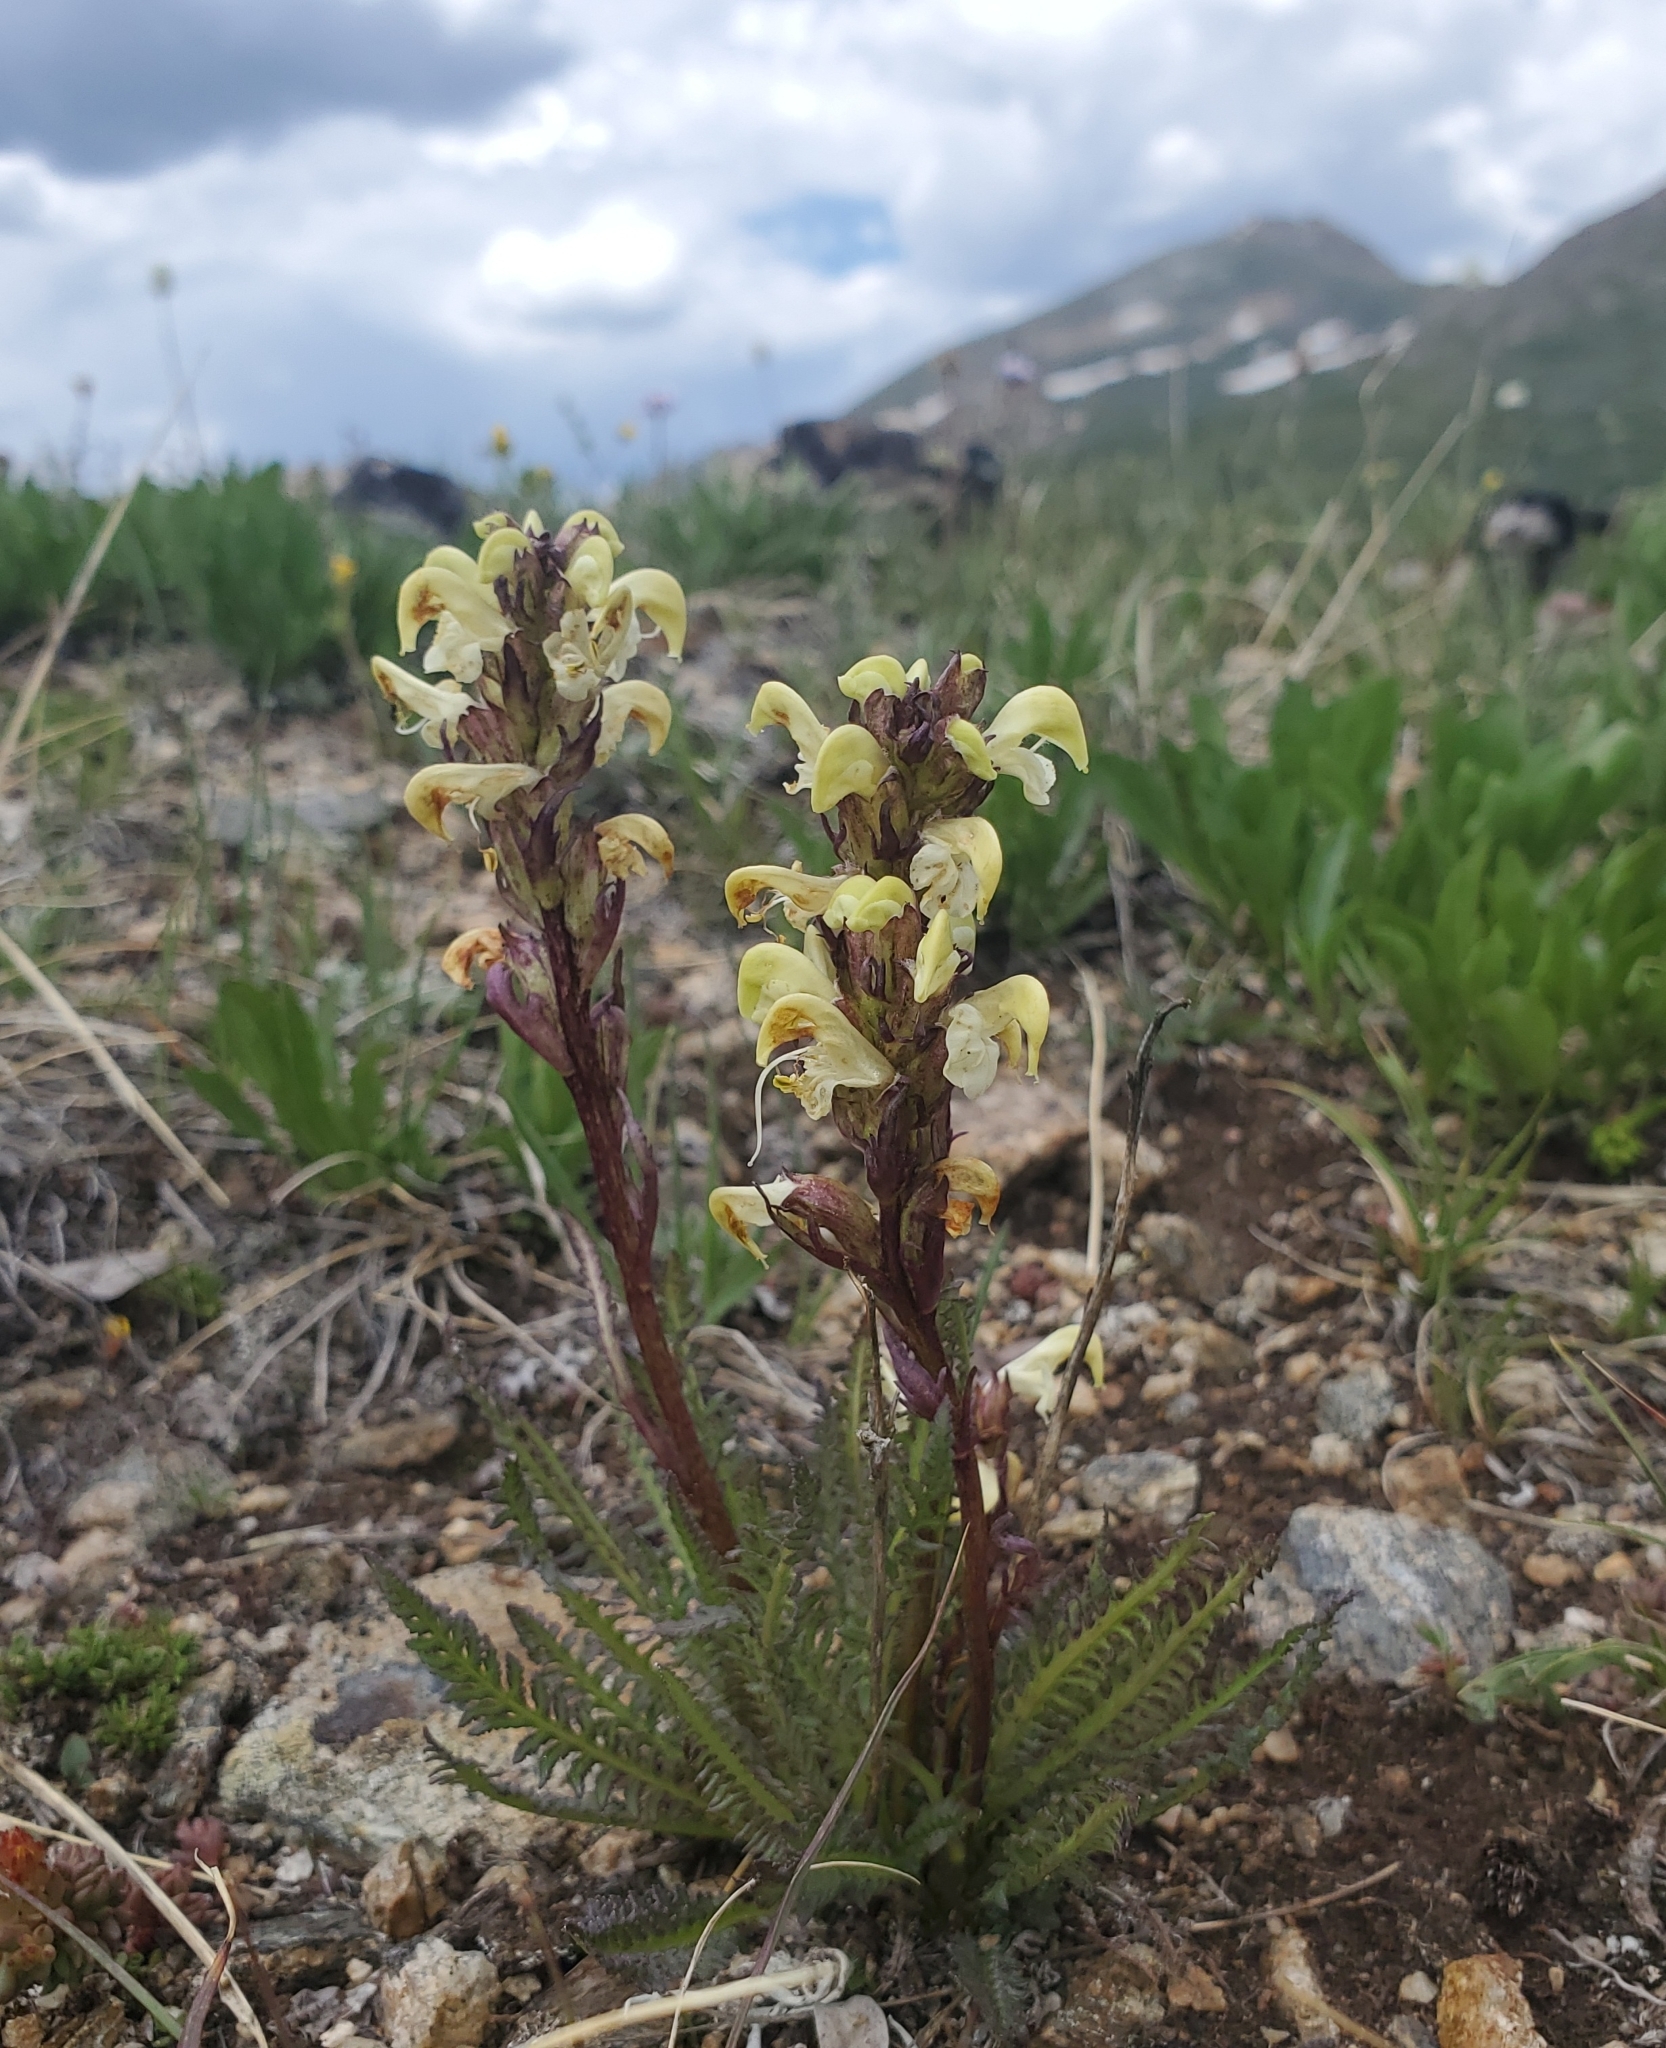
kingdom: Plantae
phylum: Tracheophyta
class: Magnoliopsida
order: Lamiales
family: Orobanchaceae
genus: Pedicularis
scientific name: Pedicularis parryi
